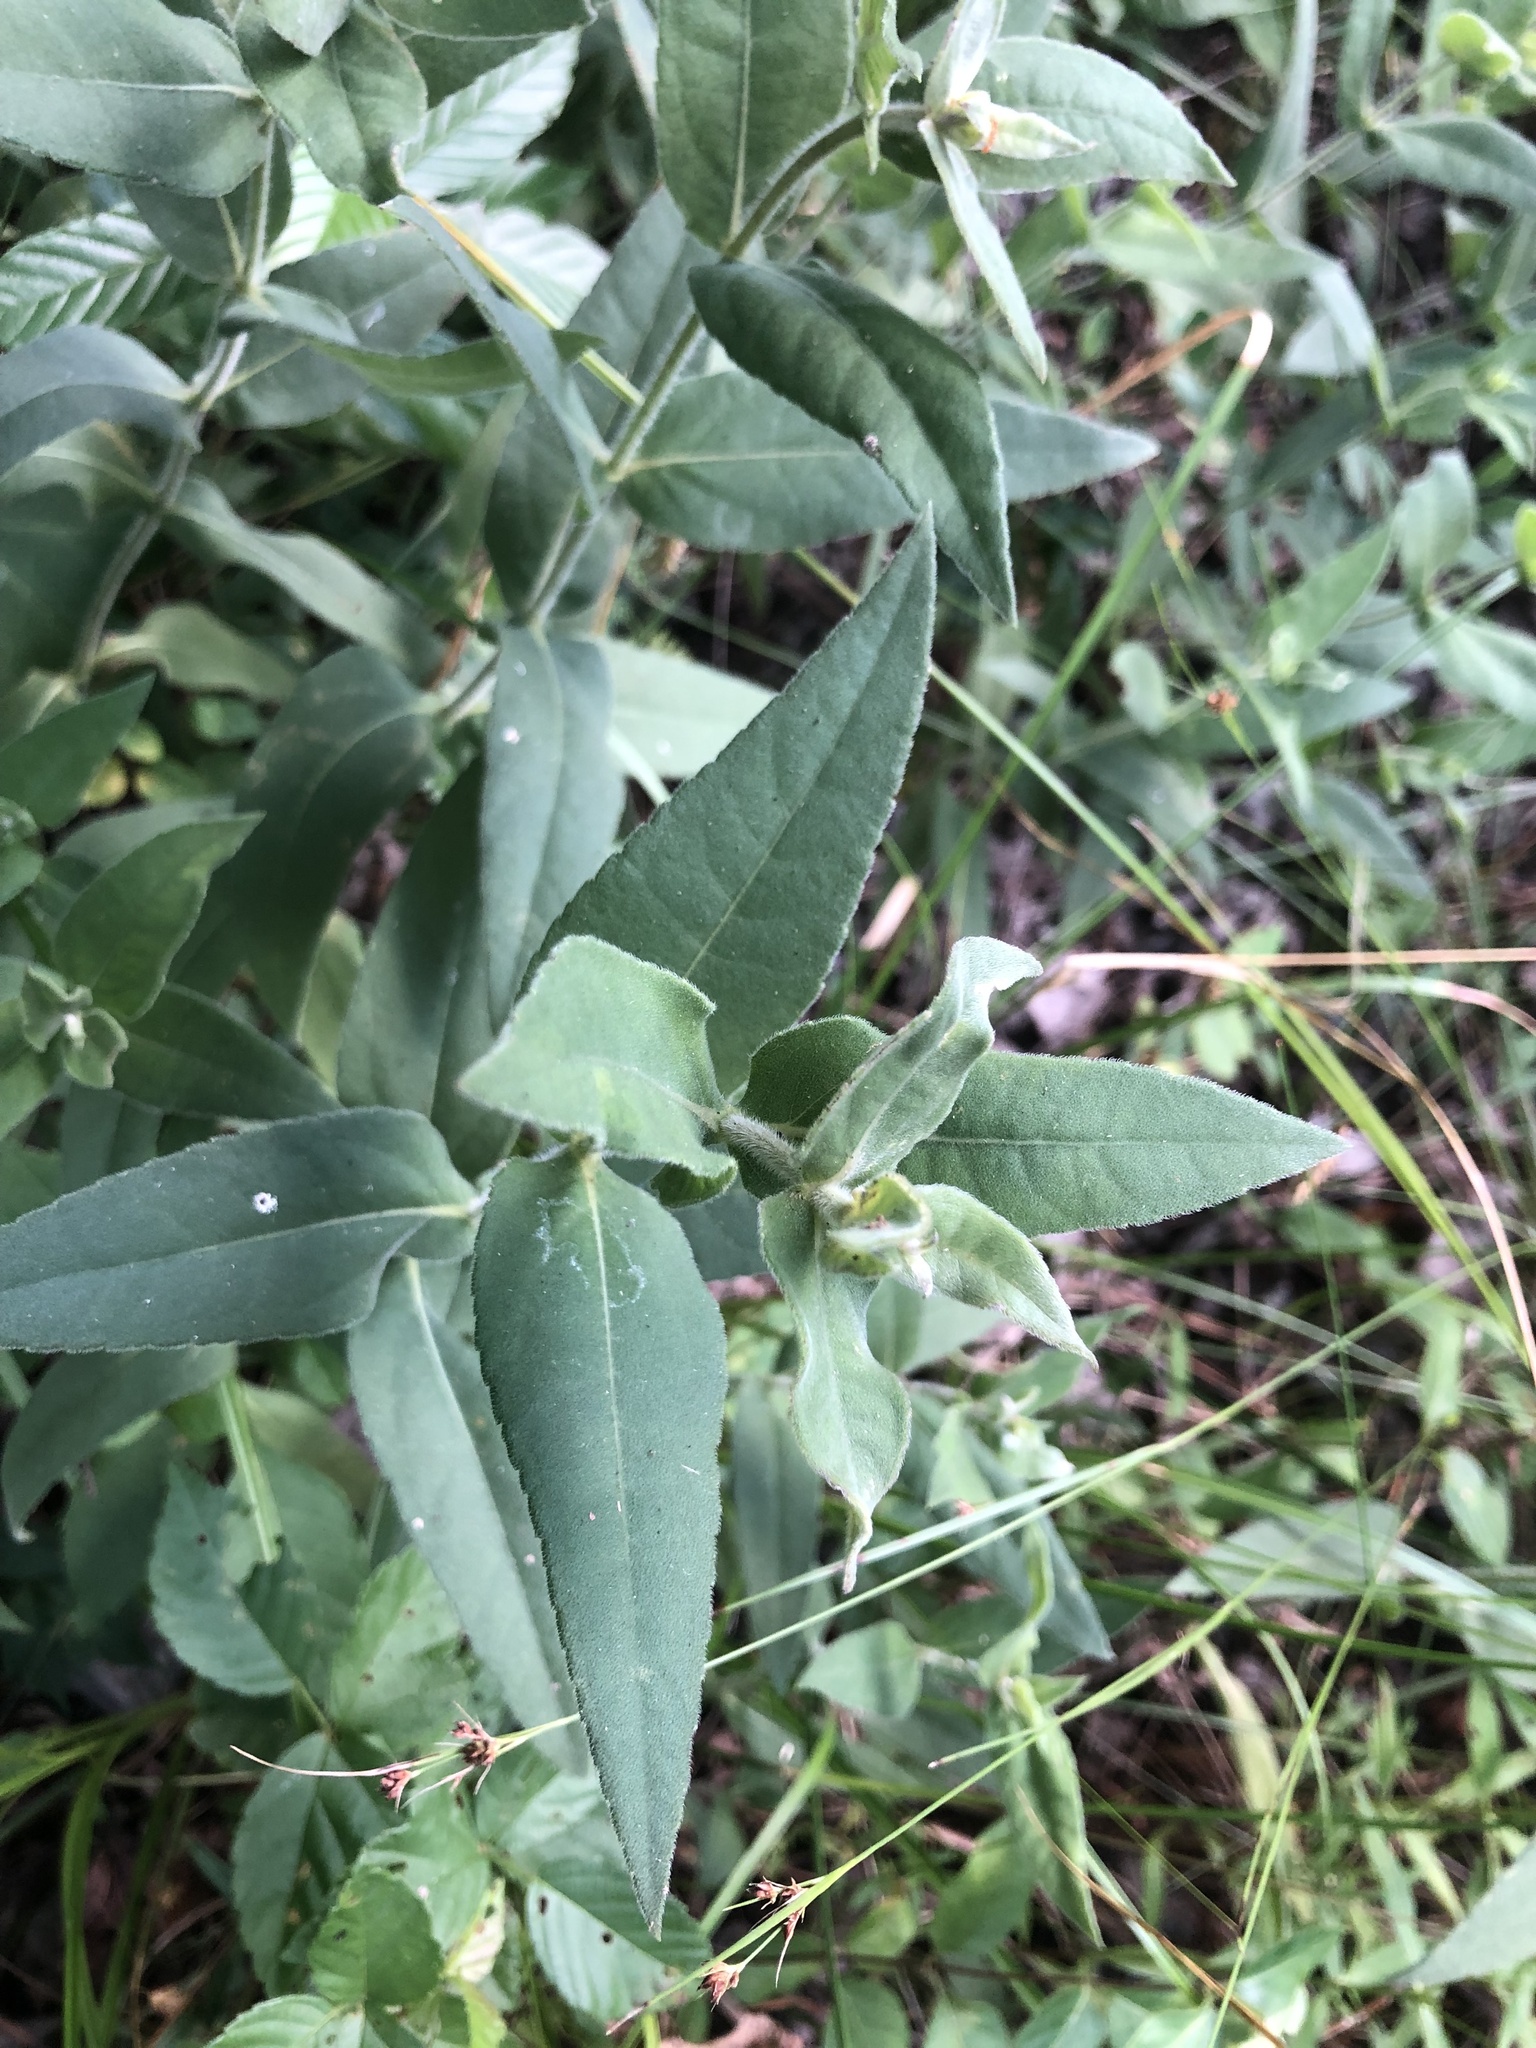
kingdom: Plantae
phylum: Tracheophyta
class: Magnoliopsida
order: Asterales
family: Asteraceae
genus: Helianthus
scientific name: Helianthus mollis
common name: Ashy sunflower
